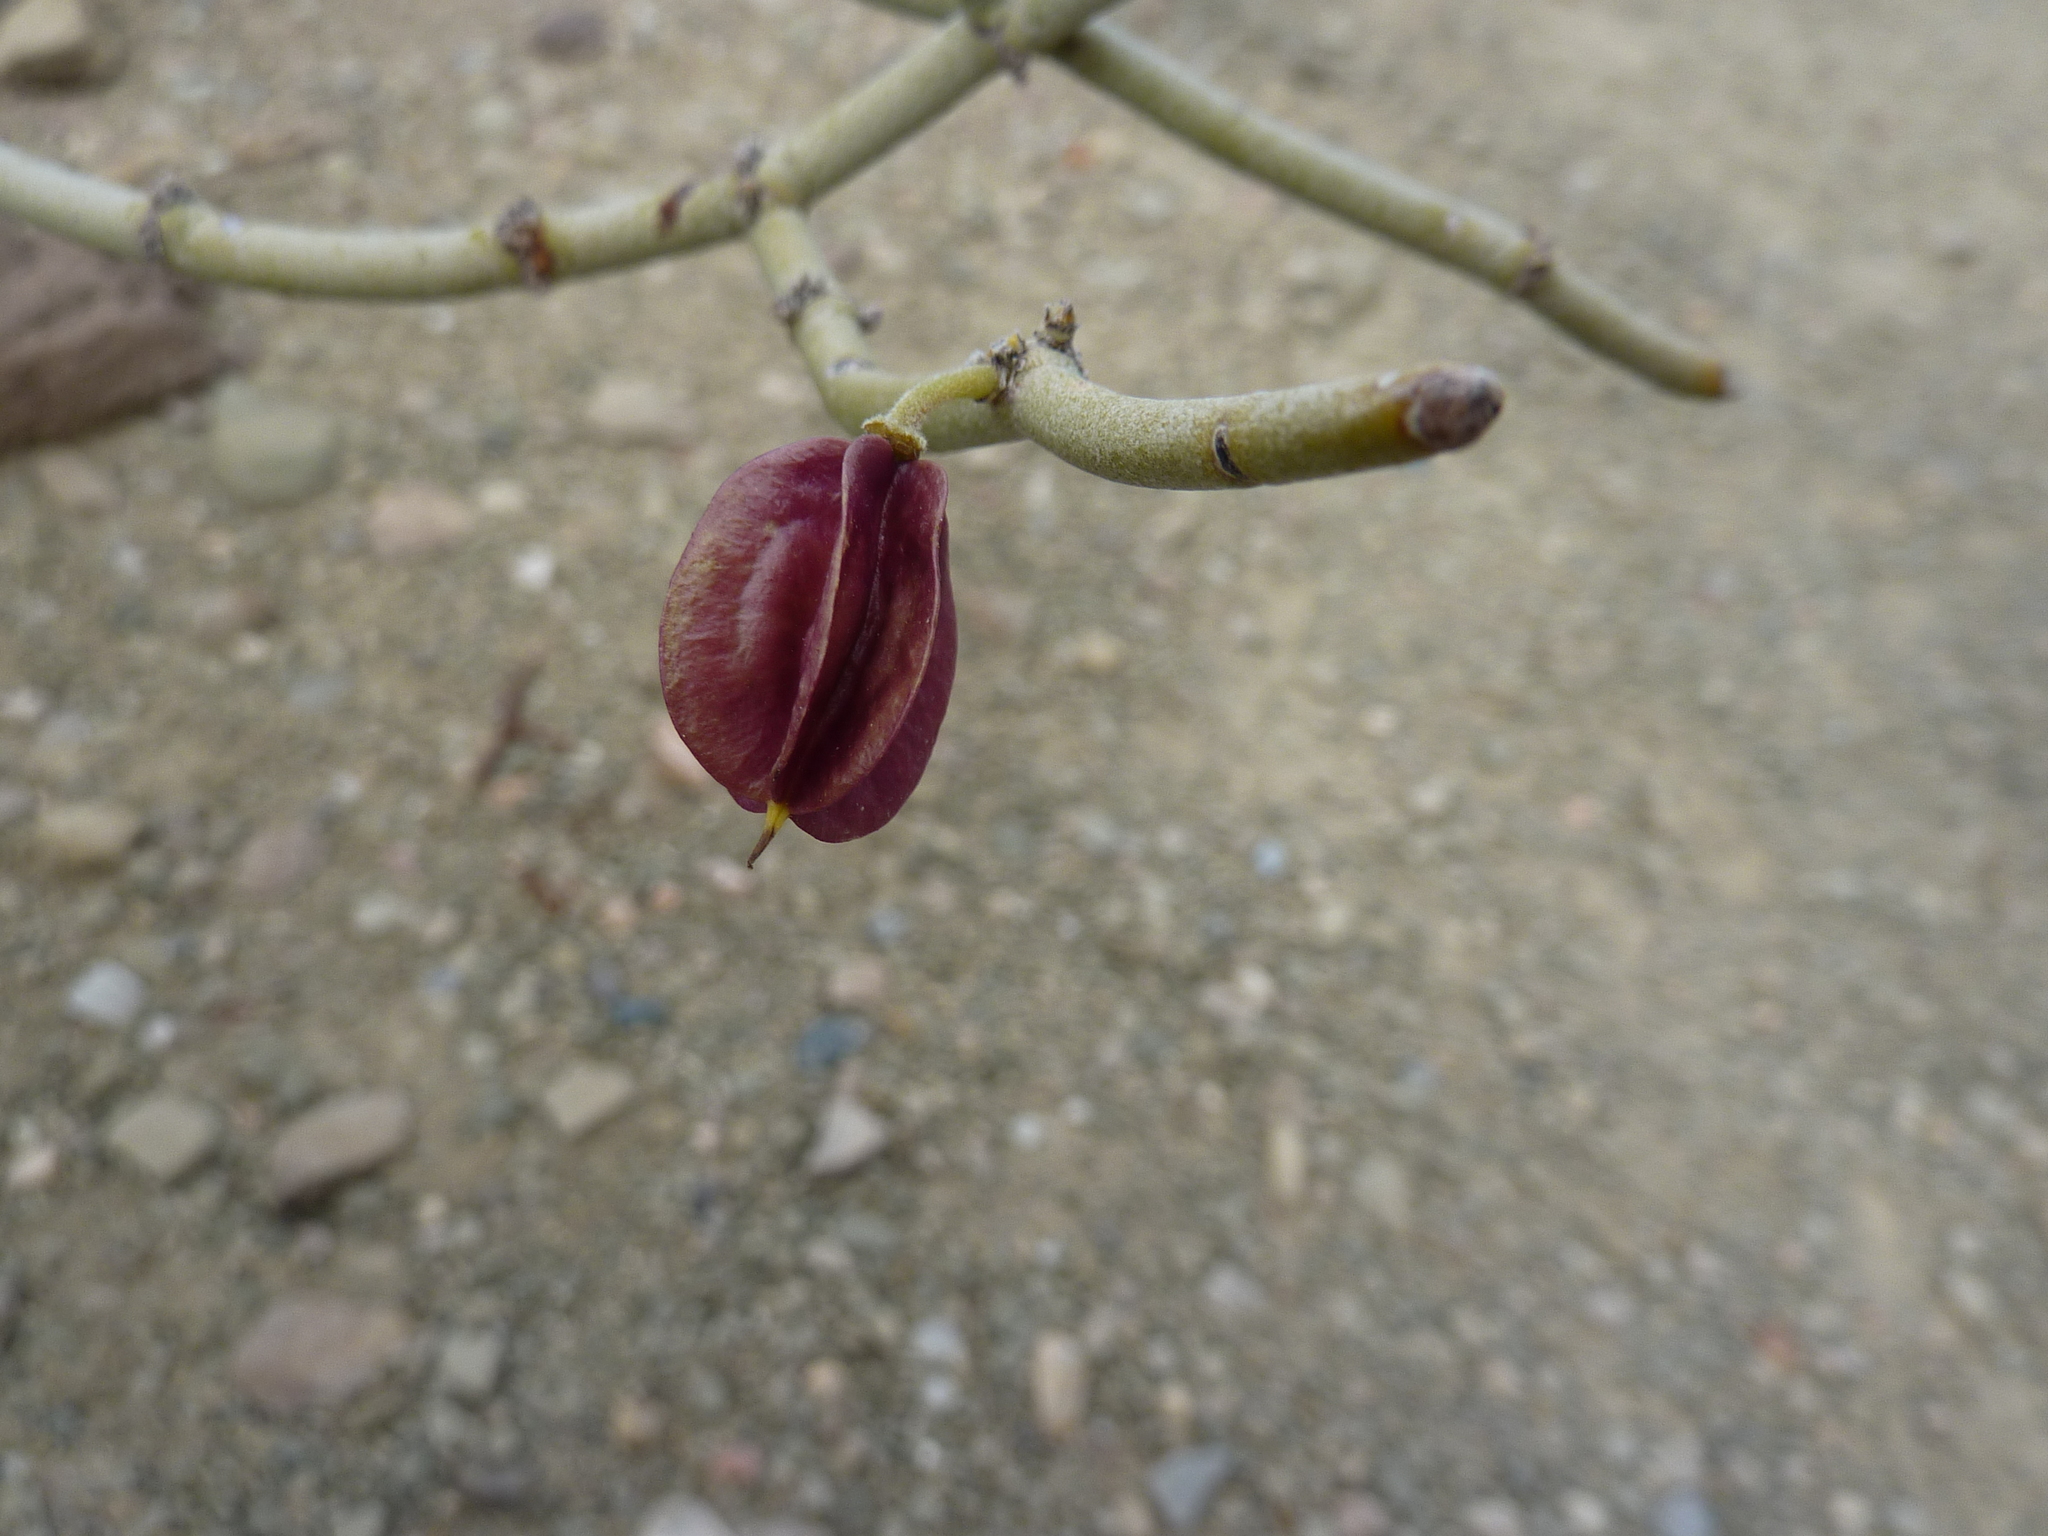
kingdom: Plantae
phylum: Tracheophyta
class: Magnoliopsida
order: Zygophyllales
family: Zygophyllaceae
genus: Bulnesia
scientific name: Bulnesia retama
